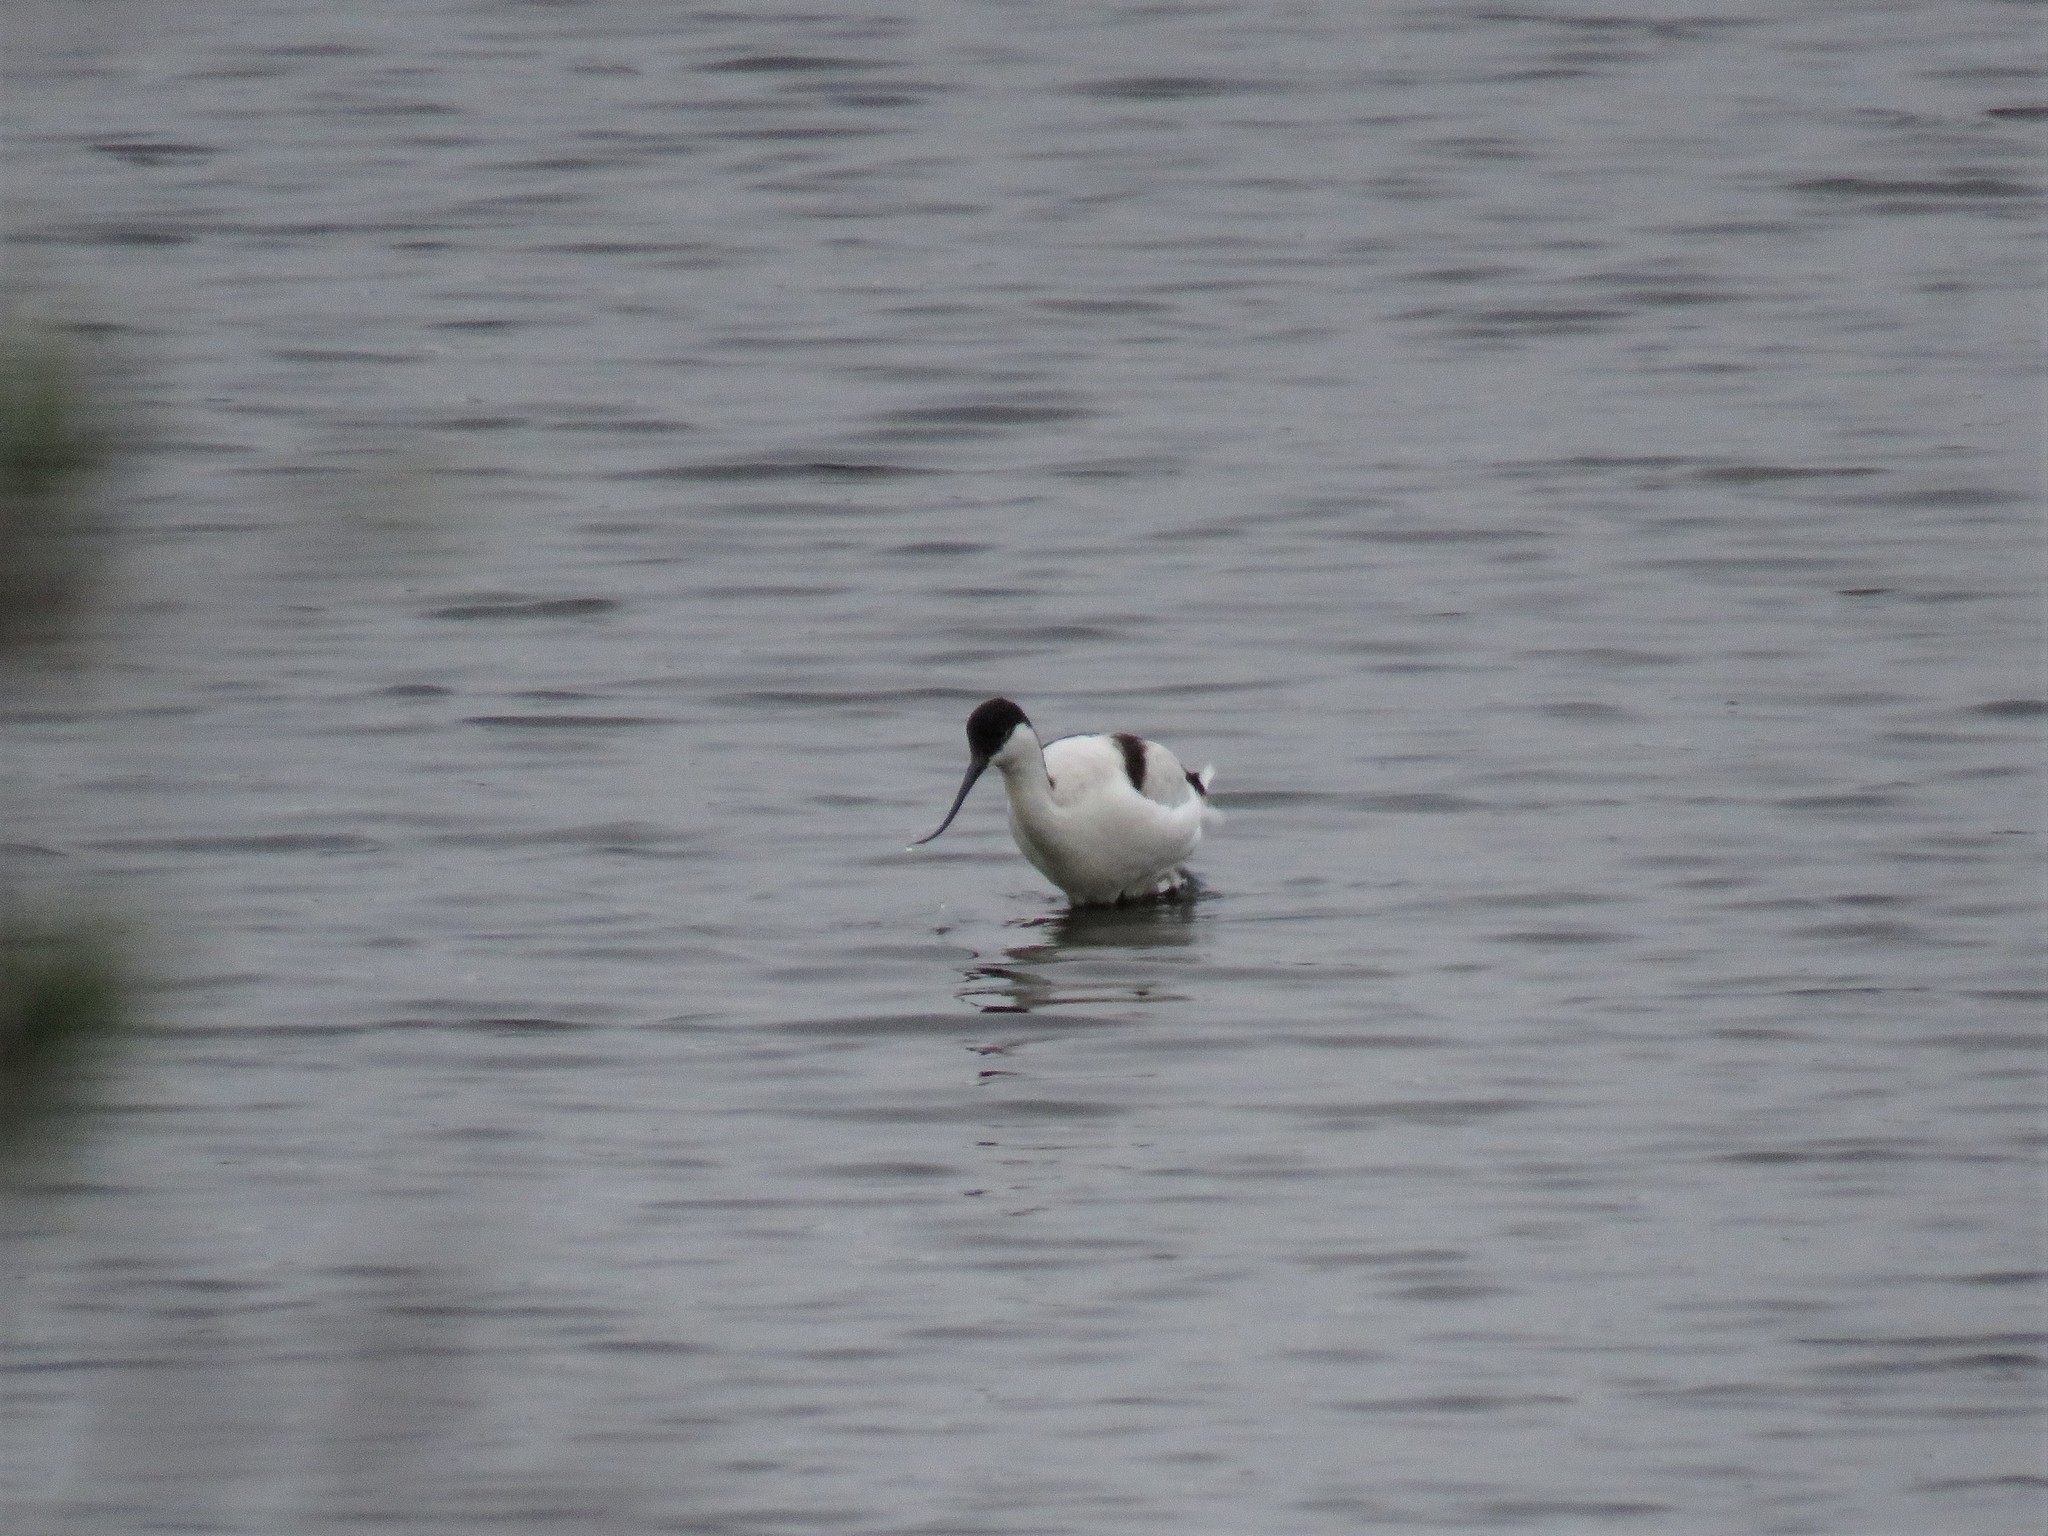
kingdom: Animalia
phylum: Chordata
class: Aves
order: Charadriiformes
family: Recurvirostridae
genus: Recurvirostra
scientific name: Recurvirostra avosetta
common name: Pied avocet
